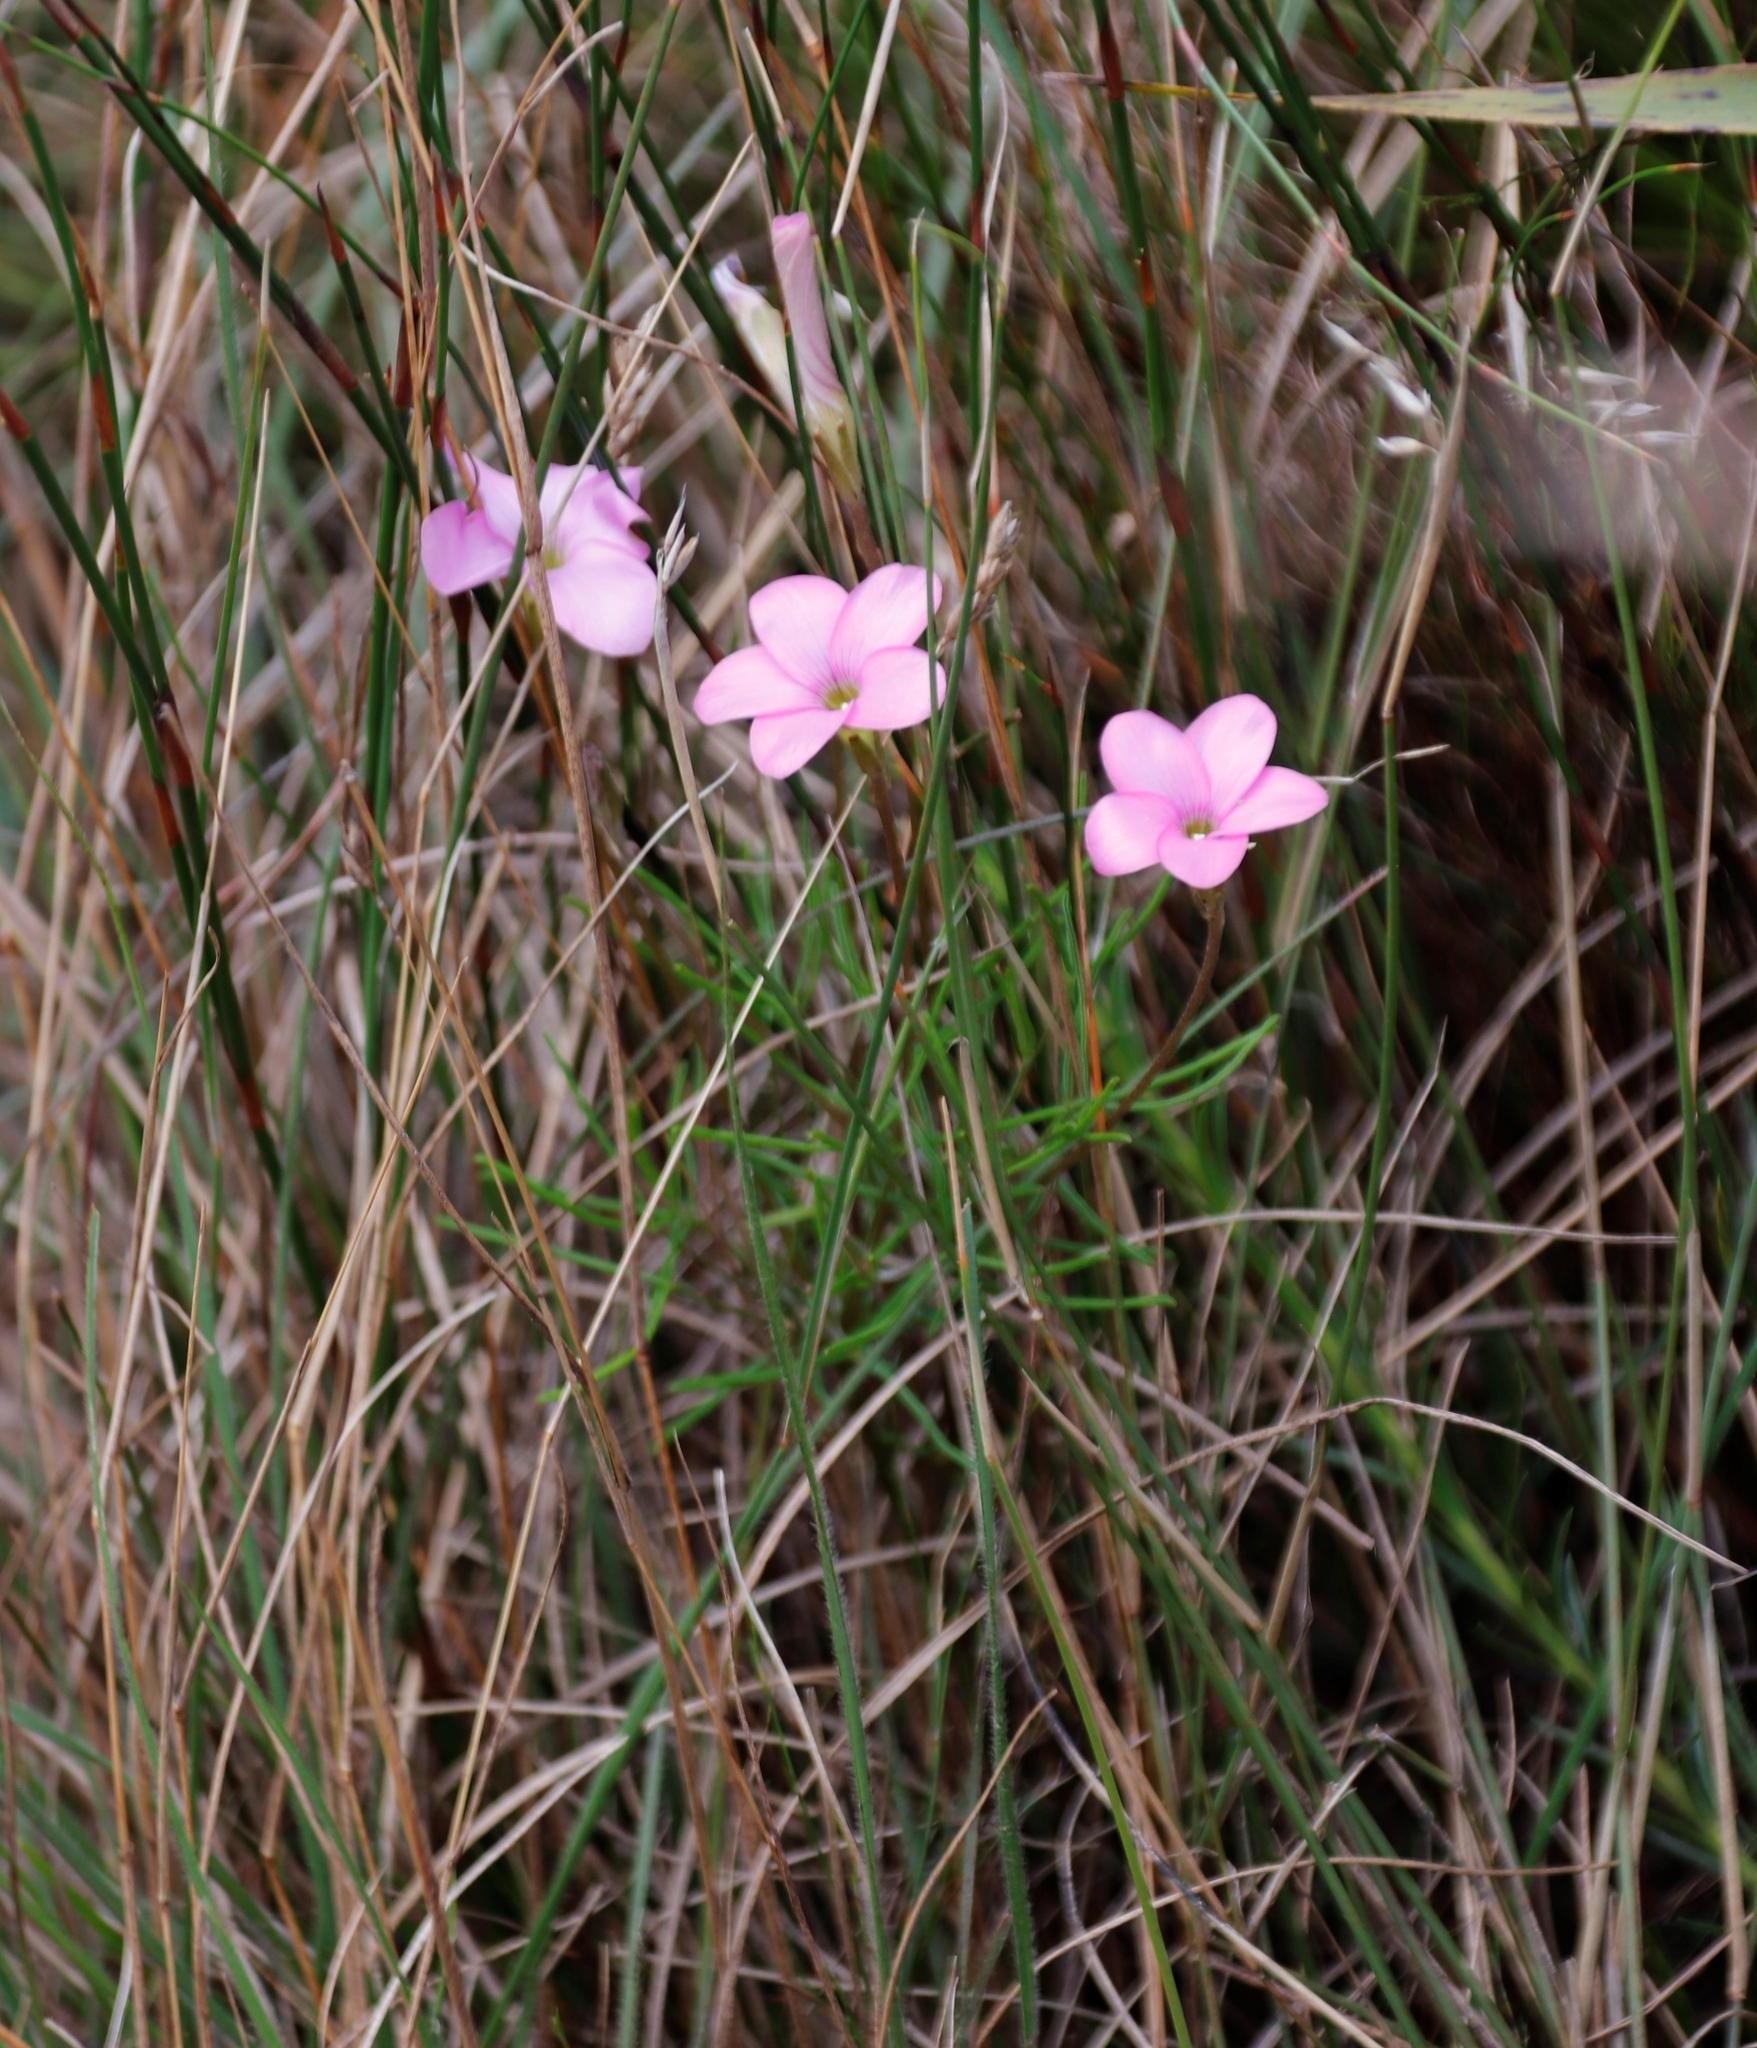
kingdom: Plantae
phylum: Tracheophyta
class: Magnoliopsida
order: Oxalidales
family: Oxalidaceae
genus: Oxalis
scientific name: Oxalis polyphylla
